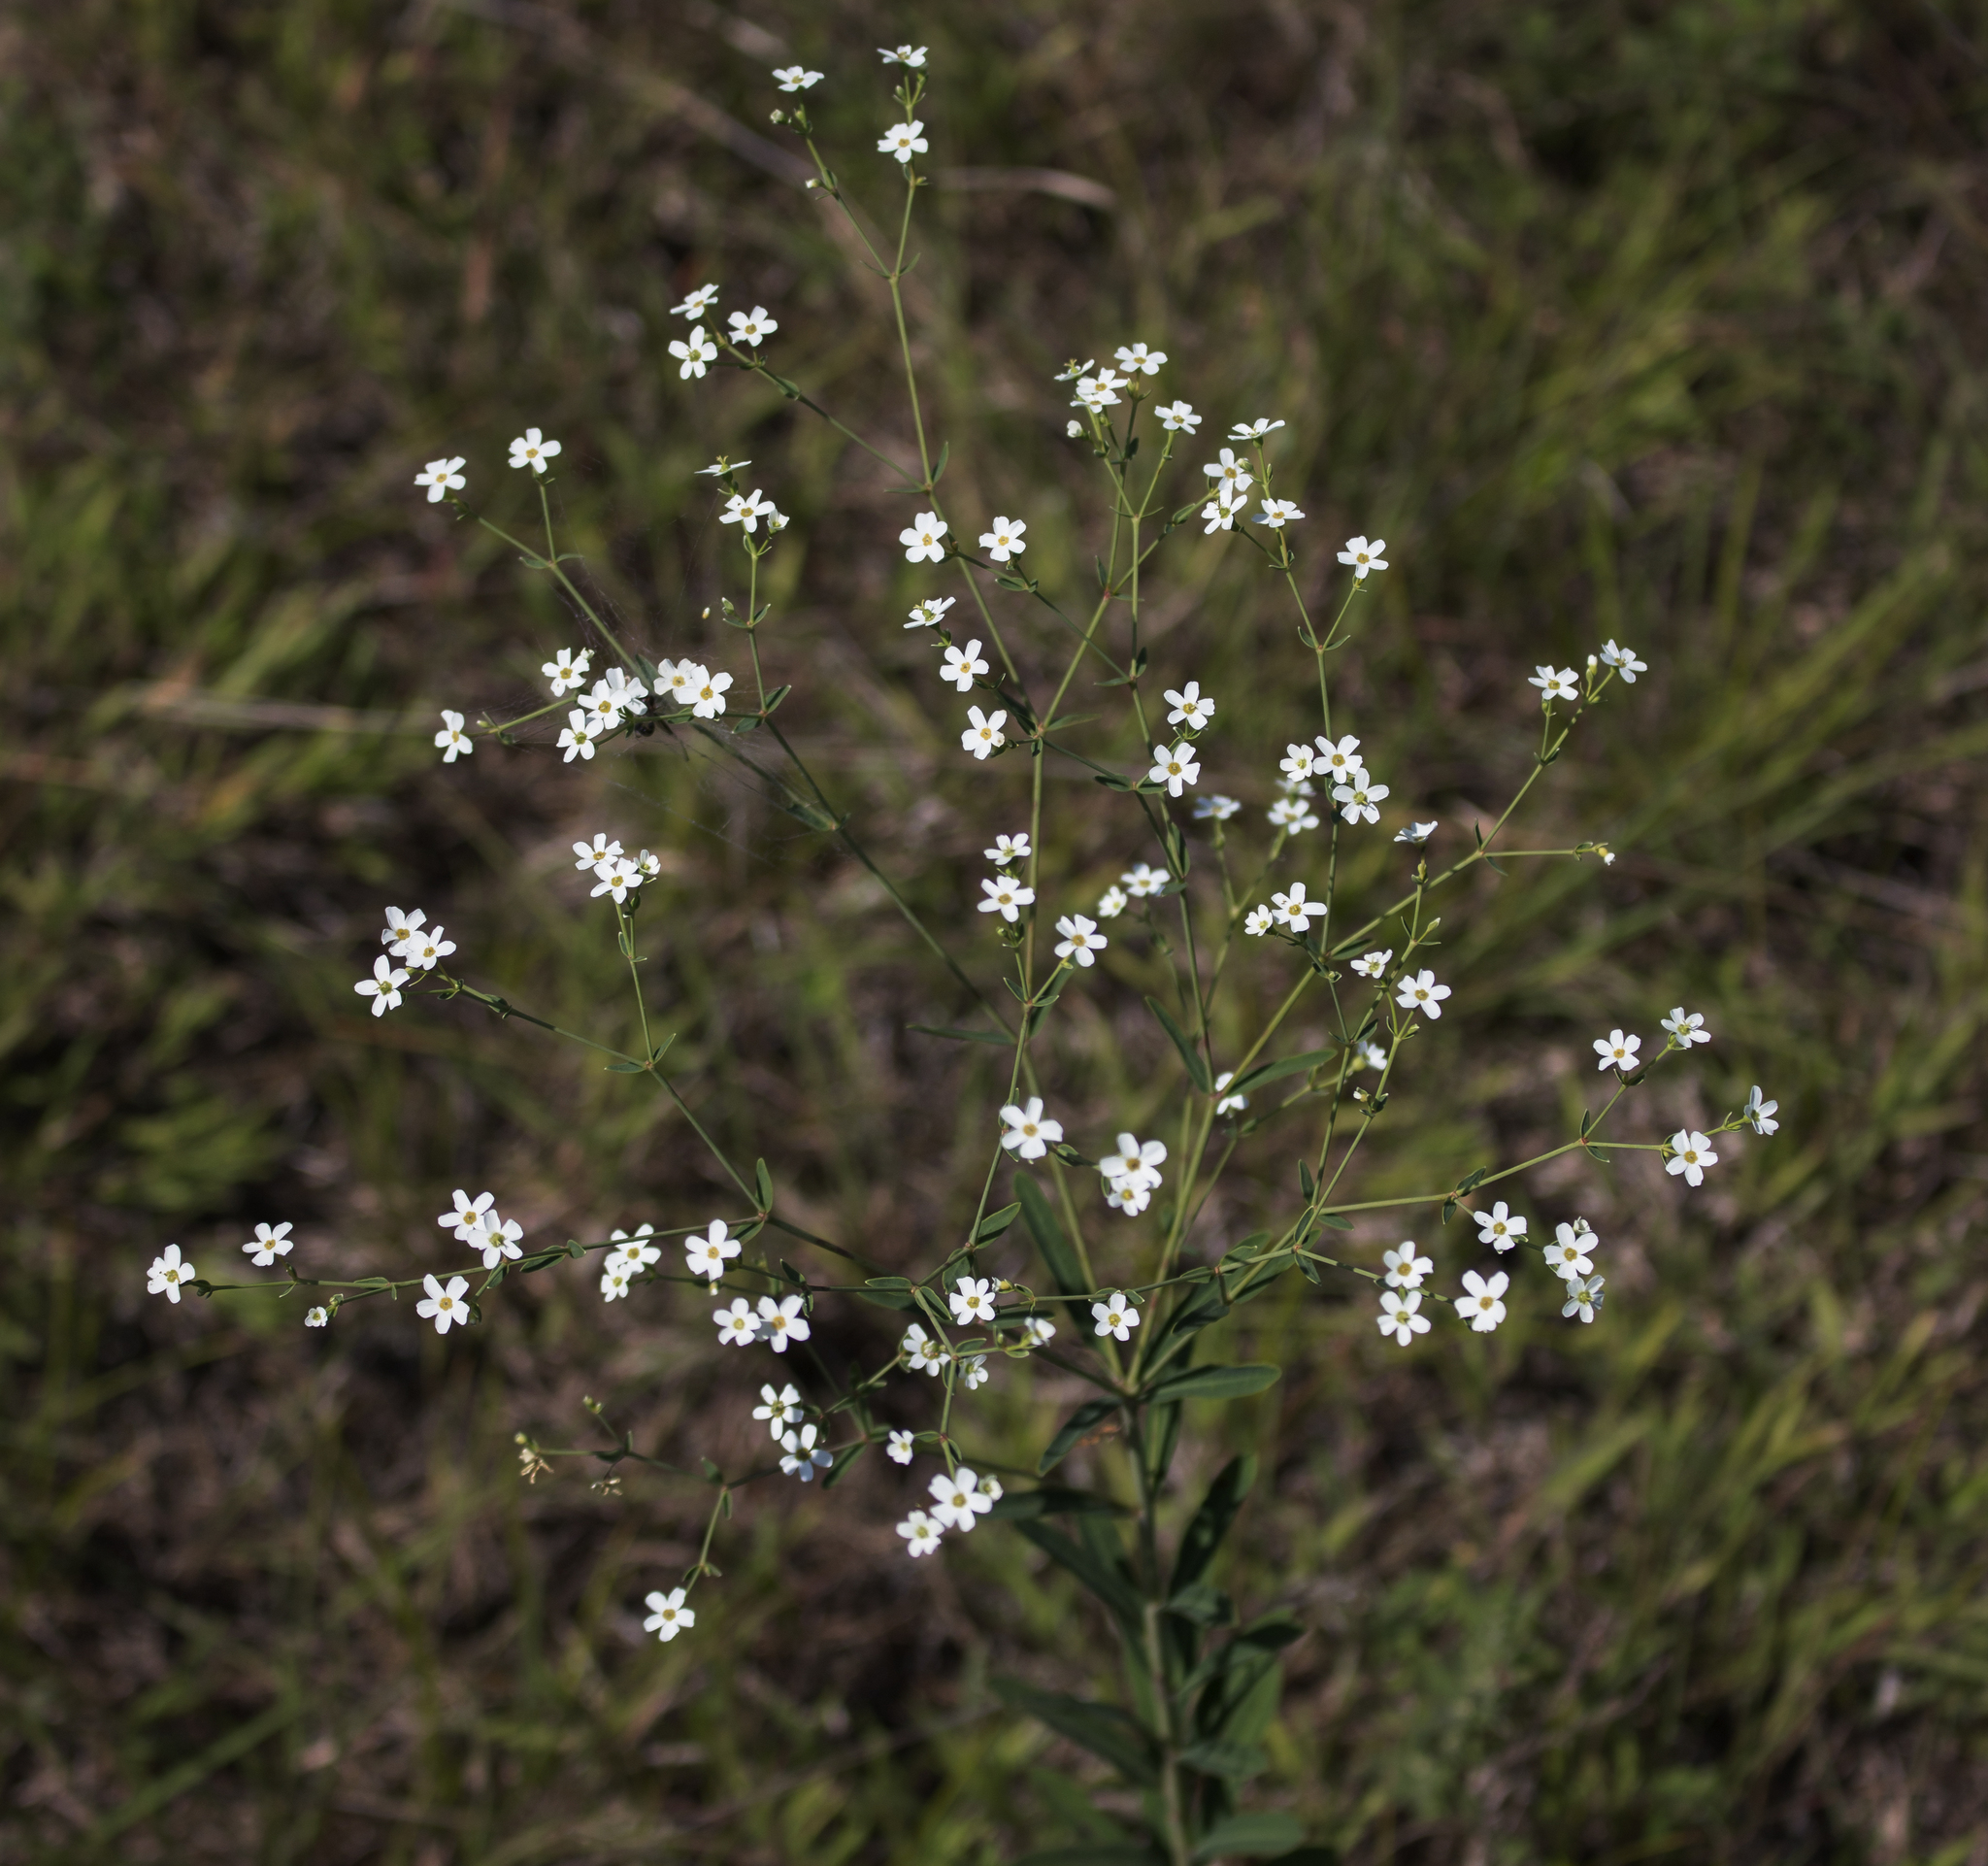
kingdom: Plantae
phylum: Tracheophyta
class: Magnoliopsida
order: Malpighiales
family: Euphorbiaceae
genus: Euphorbia
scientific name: Euphorbia corollata
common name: Flowering spurge
